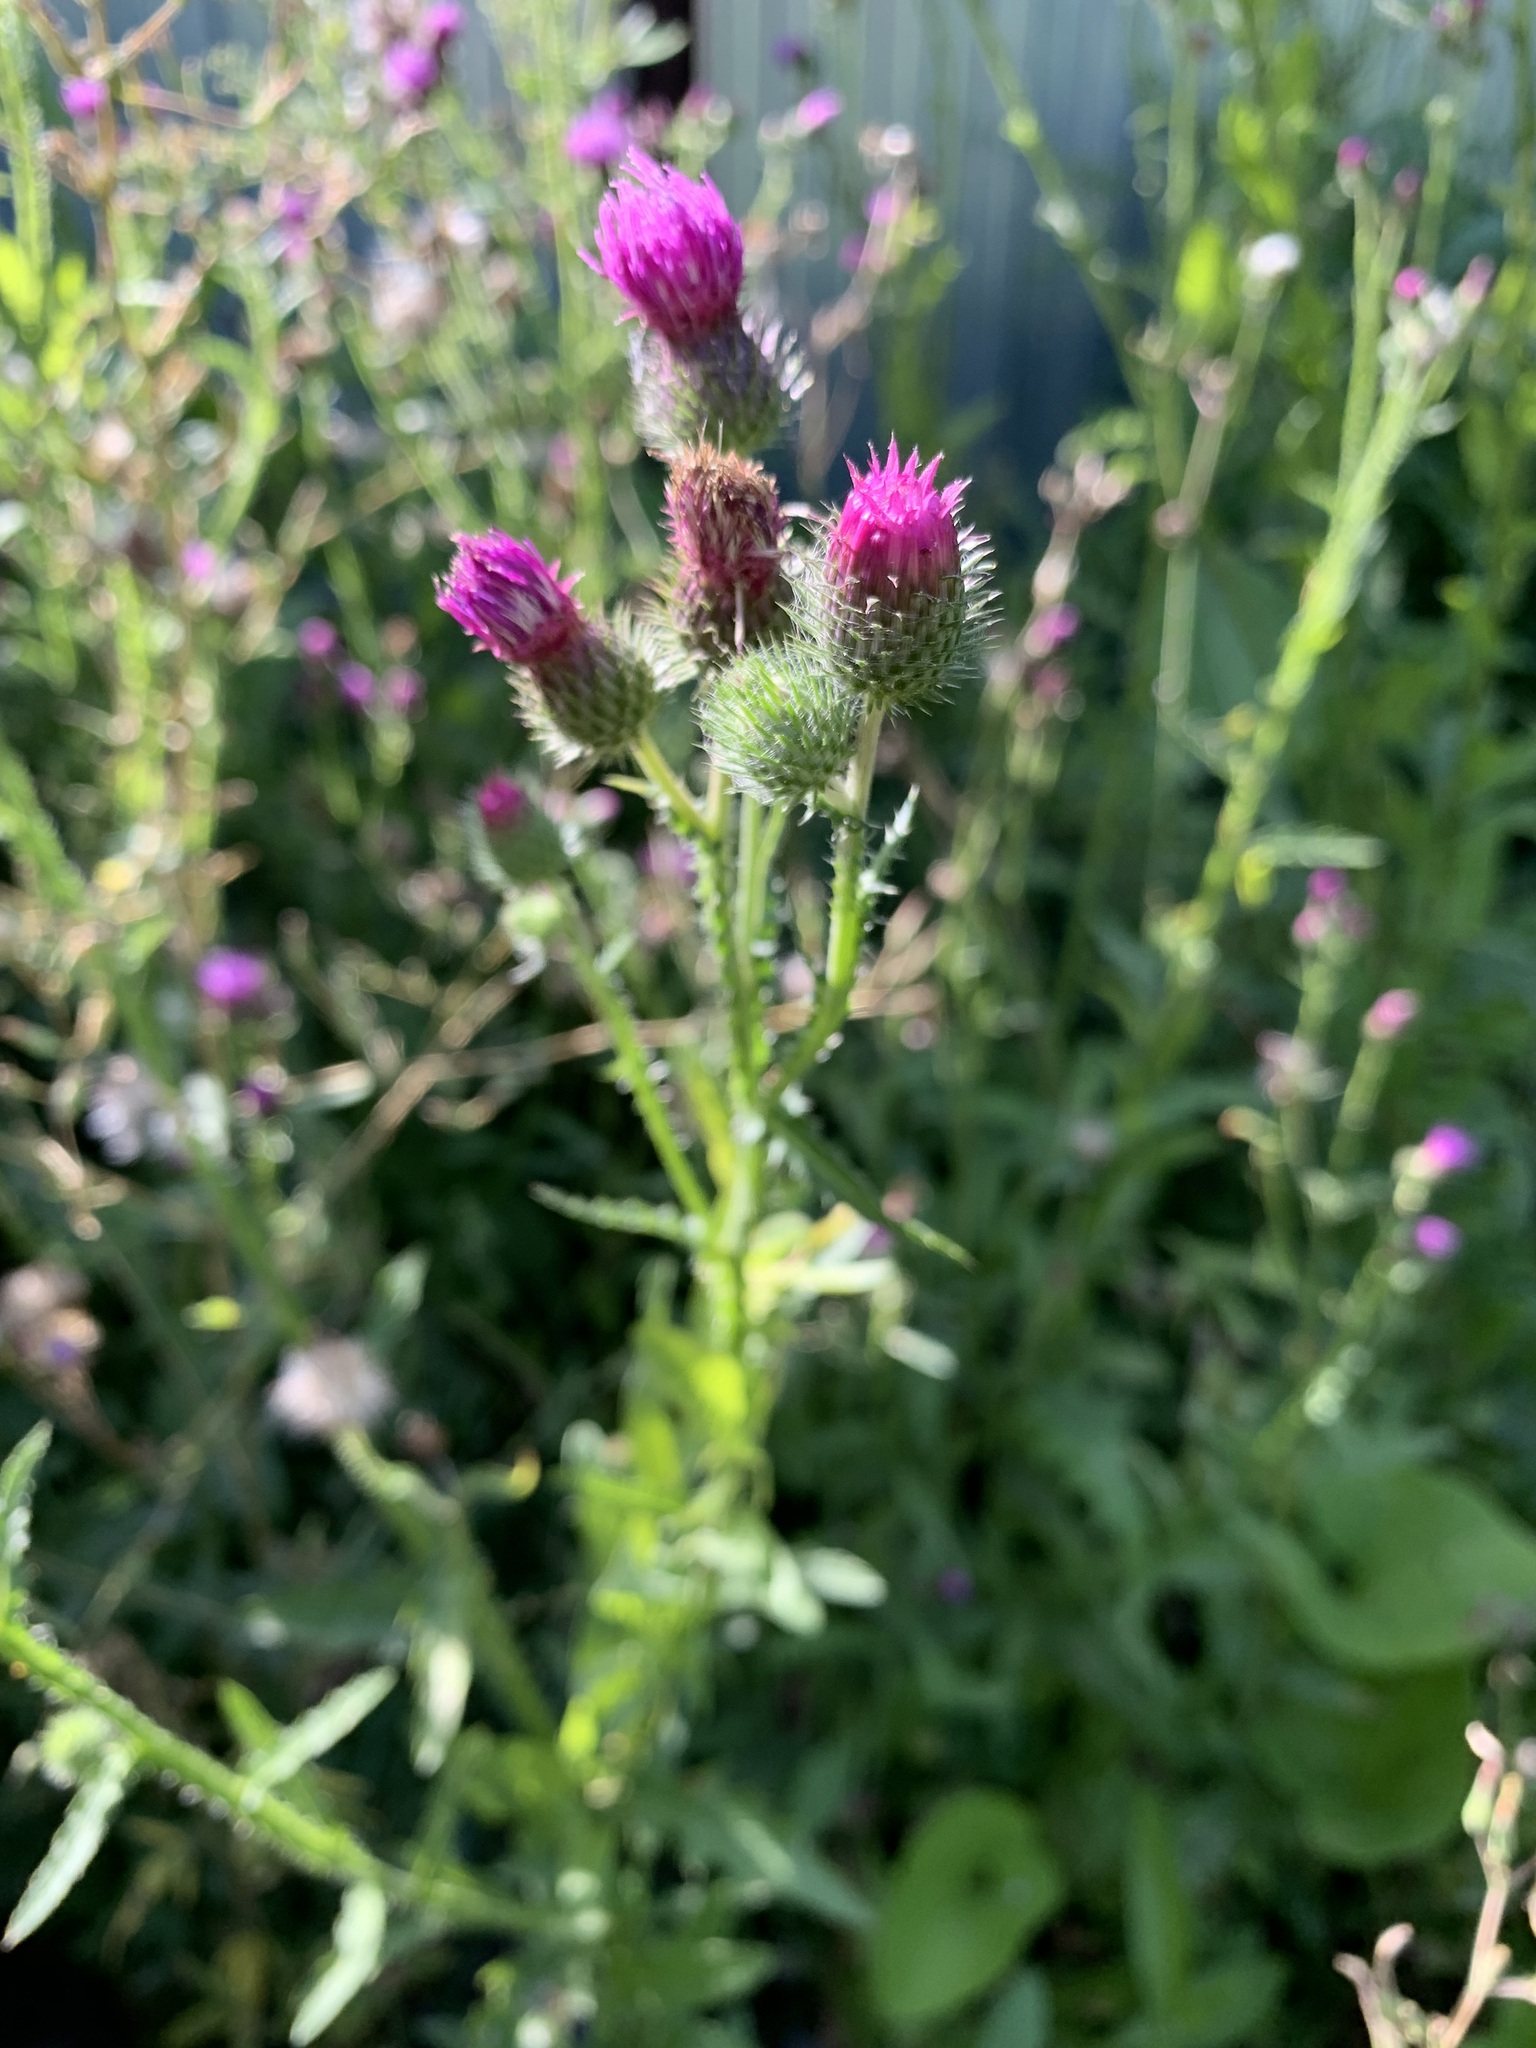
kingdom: Plantae
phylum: Tracheophyta
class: Magnoliopsida
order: Asterales
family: Asteraceae
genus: Carduus
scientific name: Carduus crispus
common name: Welted thistle
